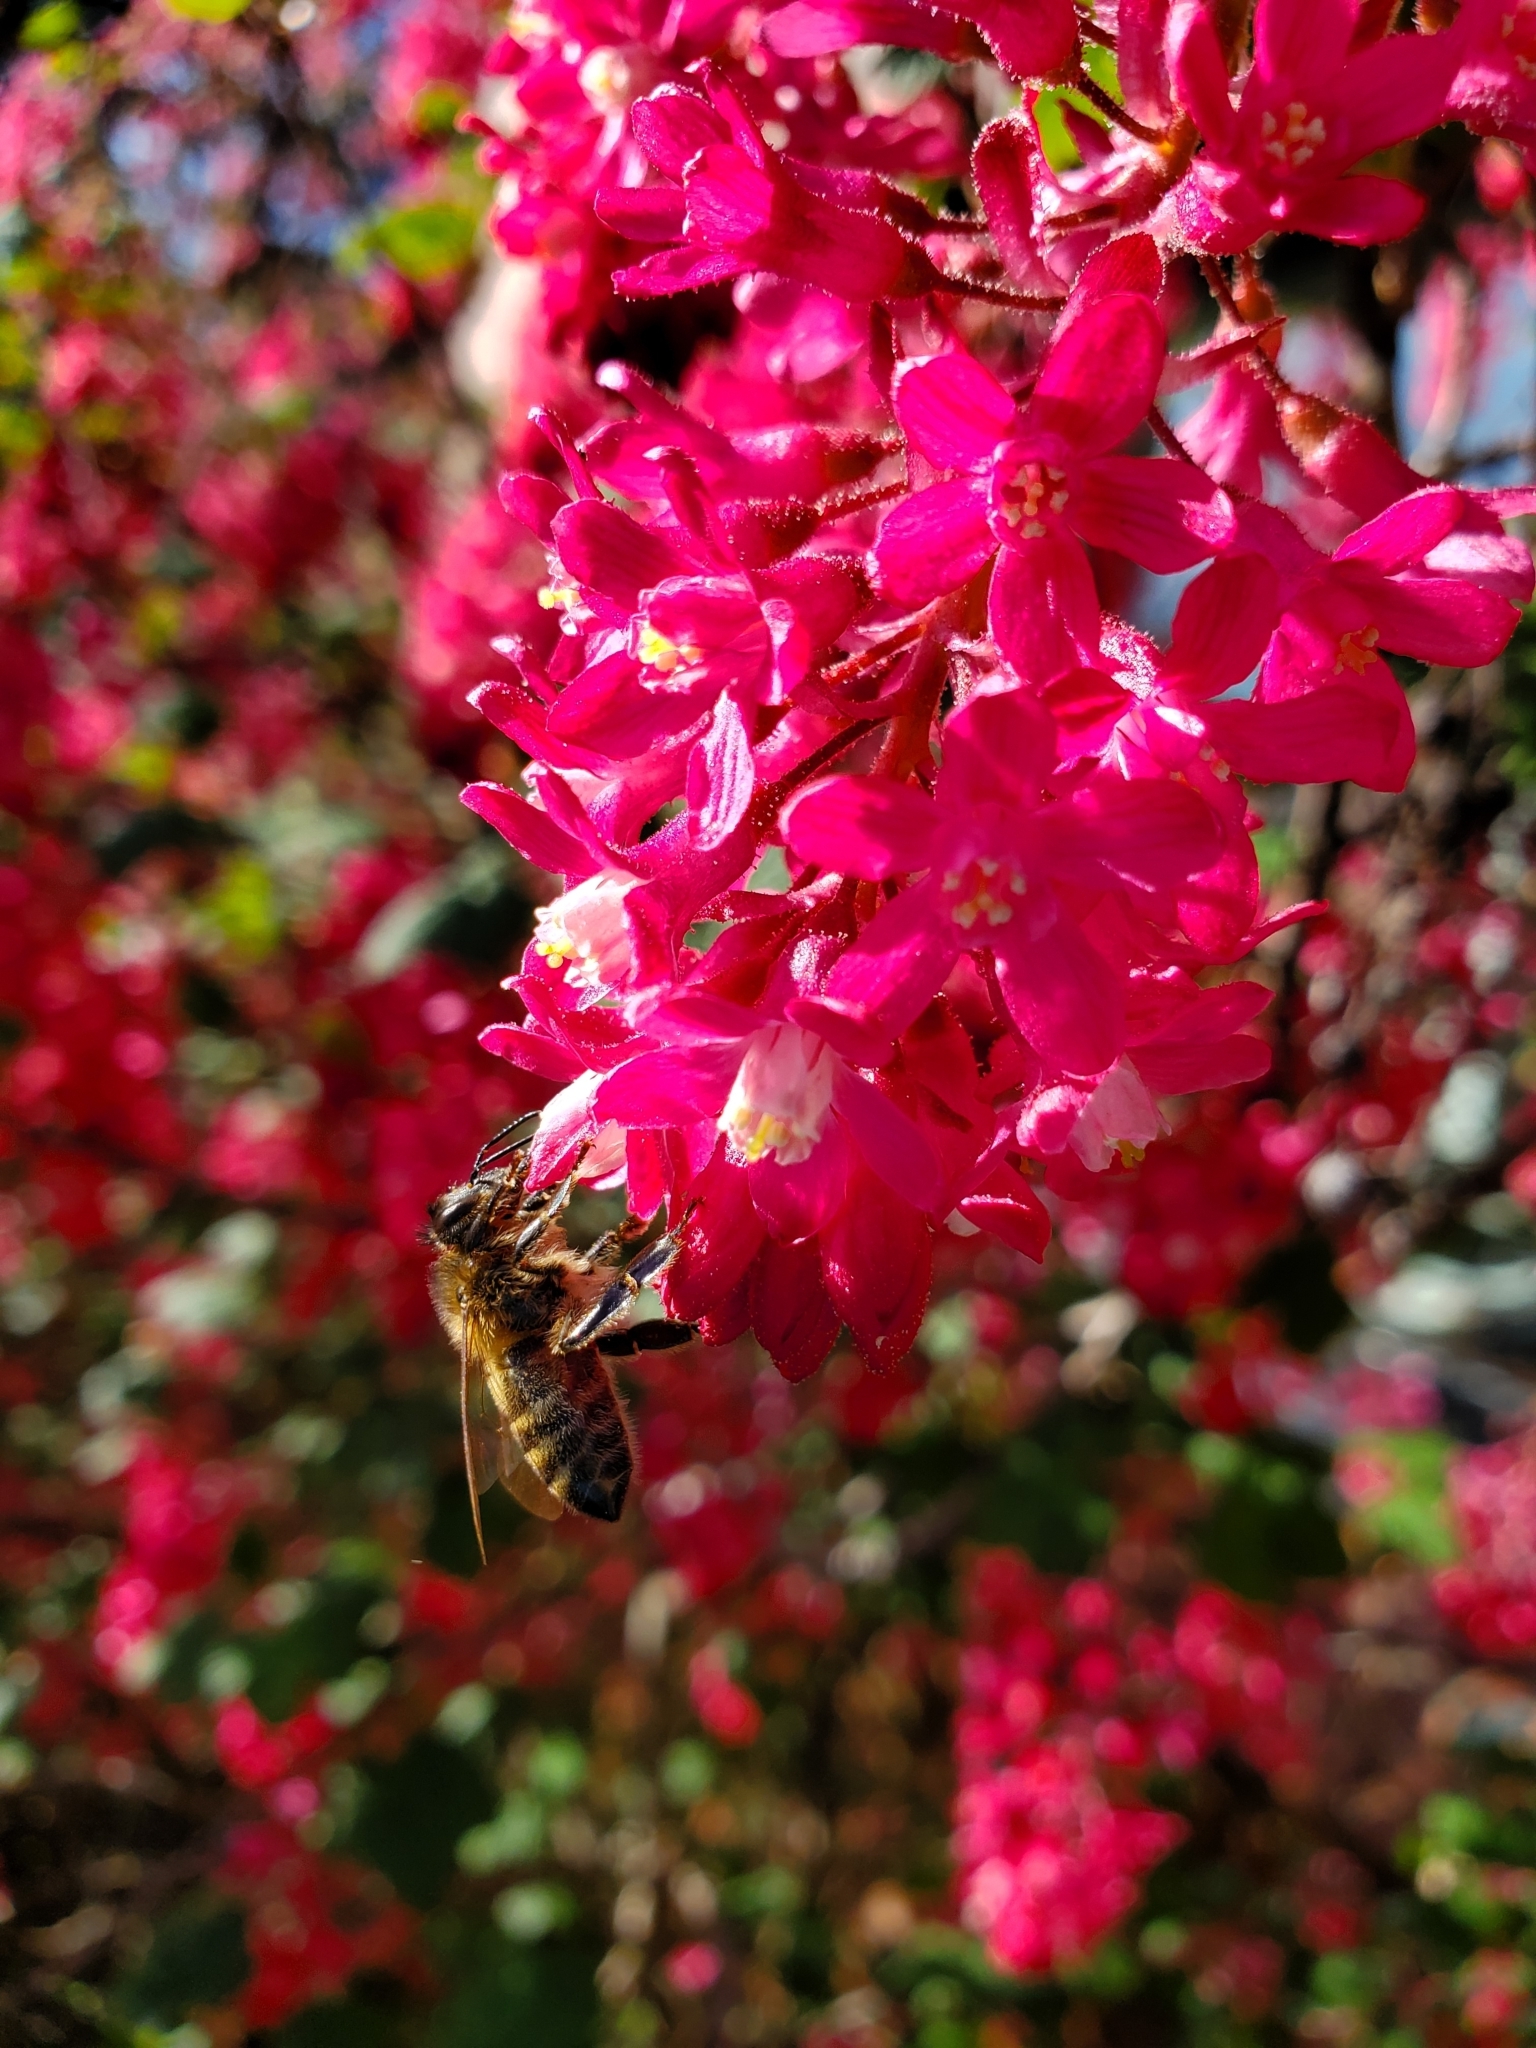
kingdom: Animalia
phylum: Arthropoda
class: Insecta
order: Hymenoptera
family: Apidae
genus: Apis
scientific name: Apis mellifera
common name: Honey bee
